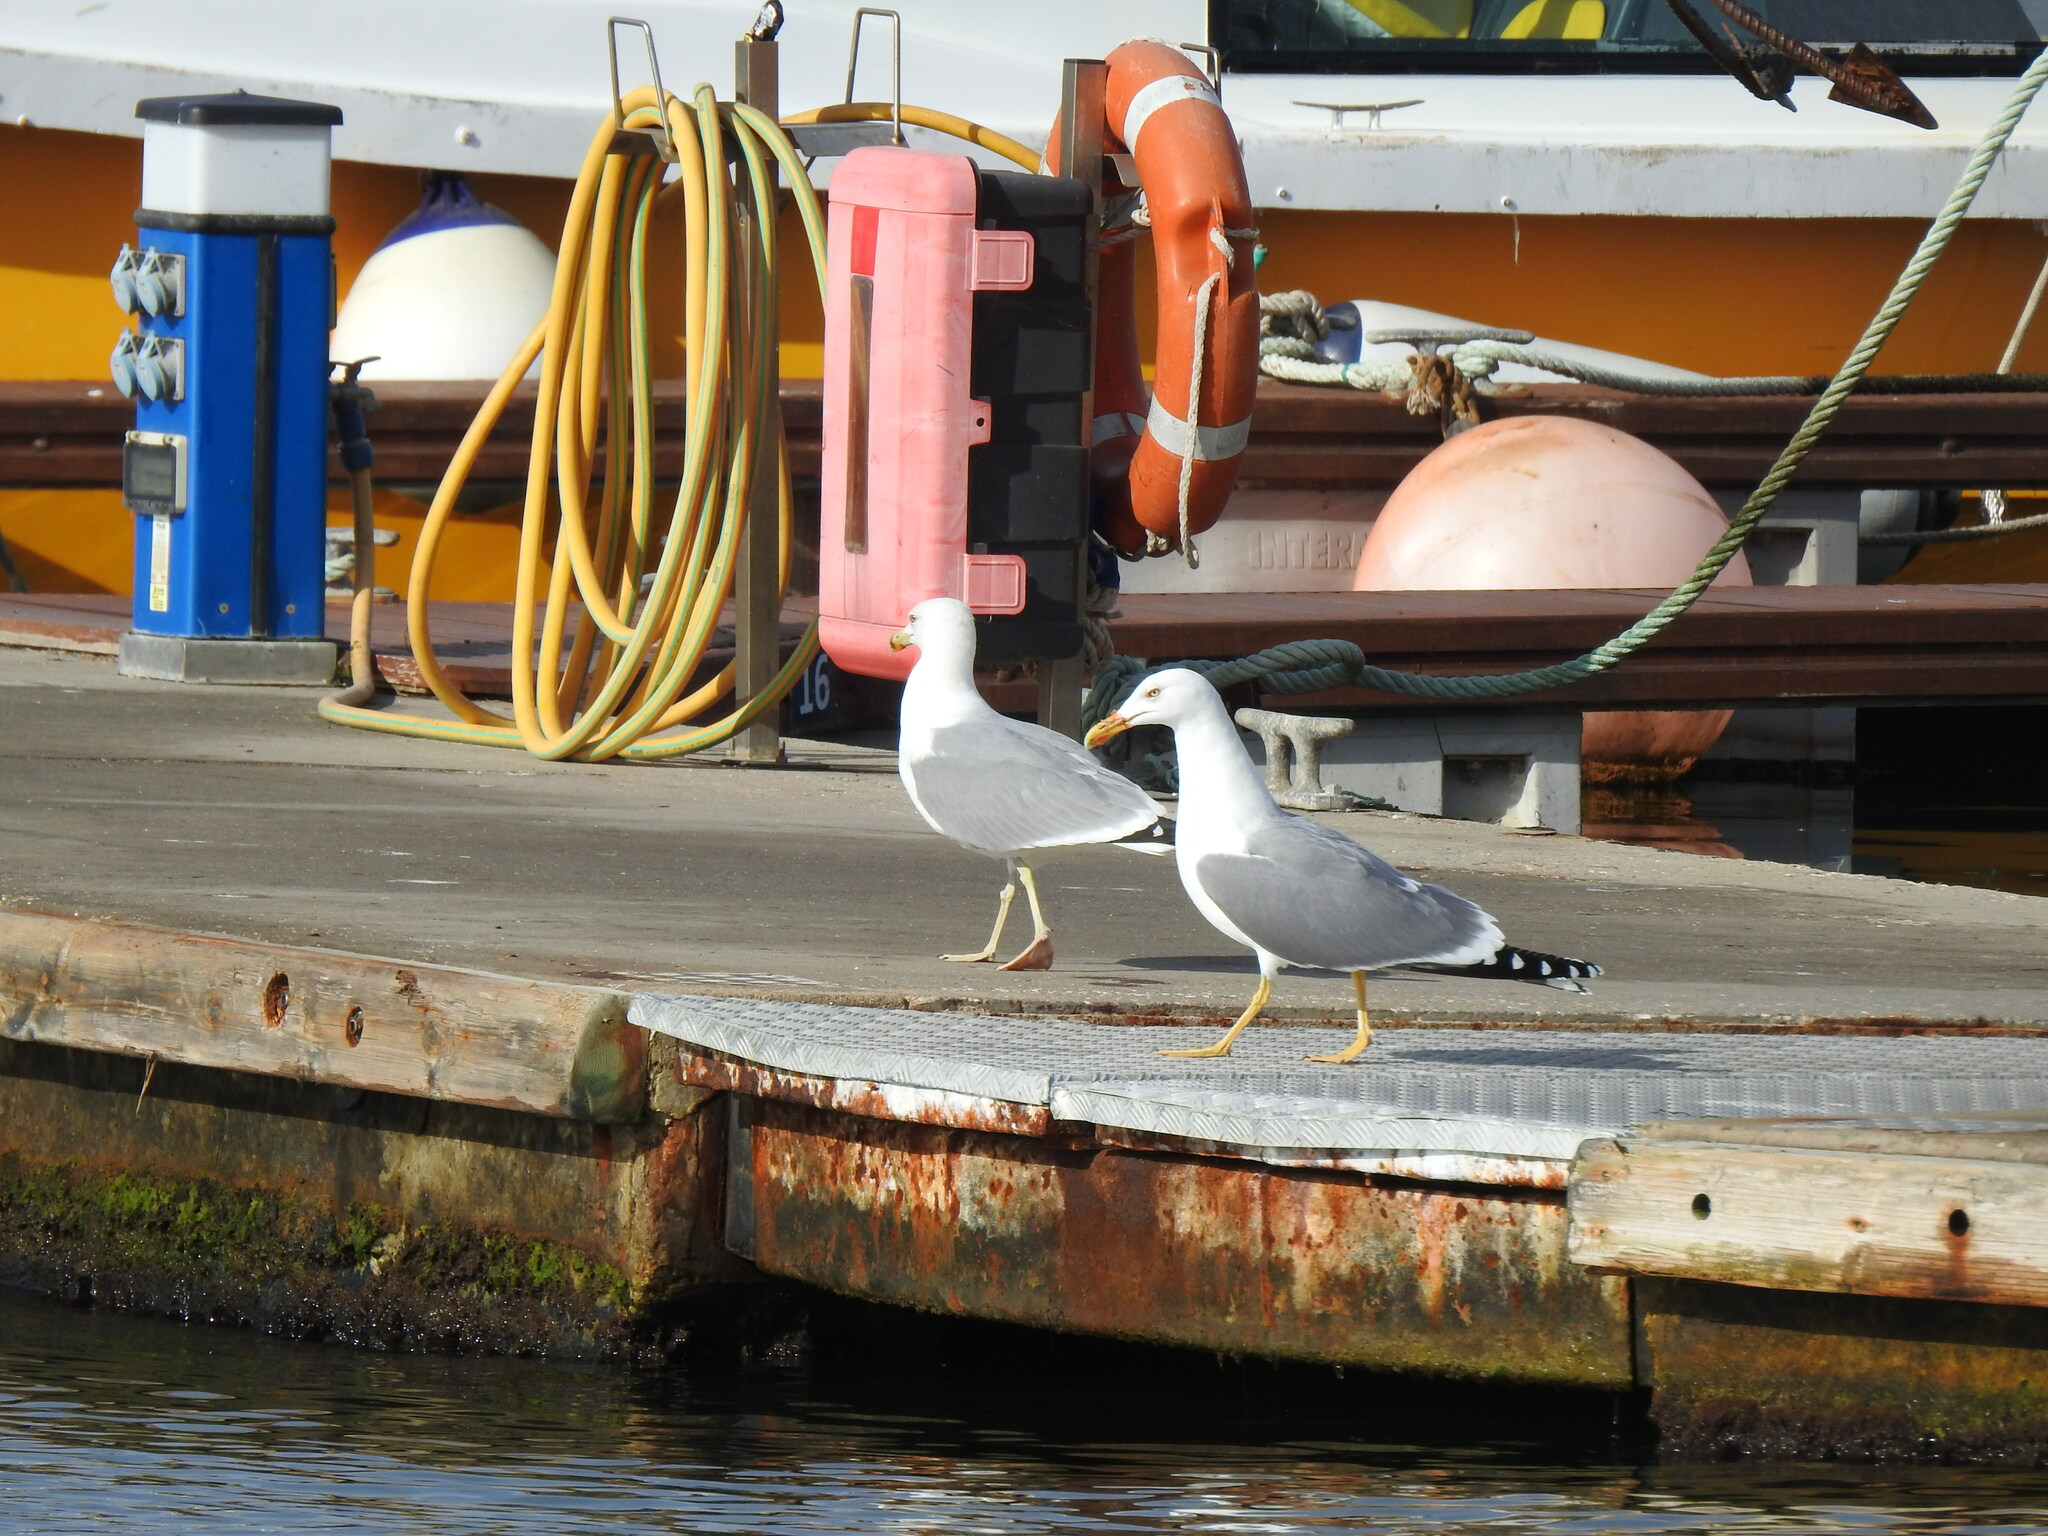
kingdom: Animalia
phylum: Chordata
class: Aves
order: Charadriiformes
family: Laridae
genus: Larus
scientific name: Larus michahellis
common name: Yellow-legged gull
